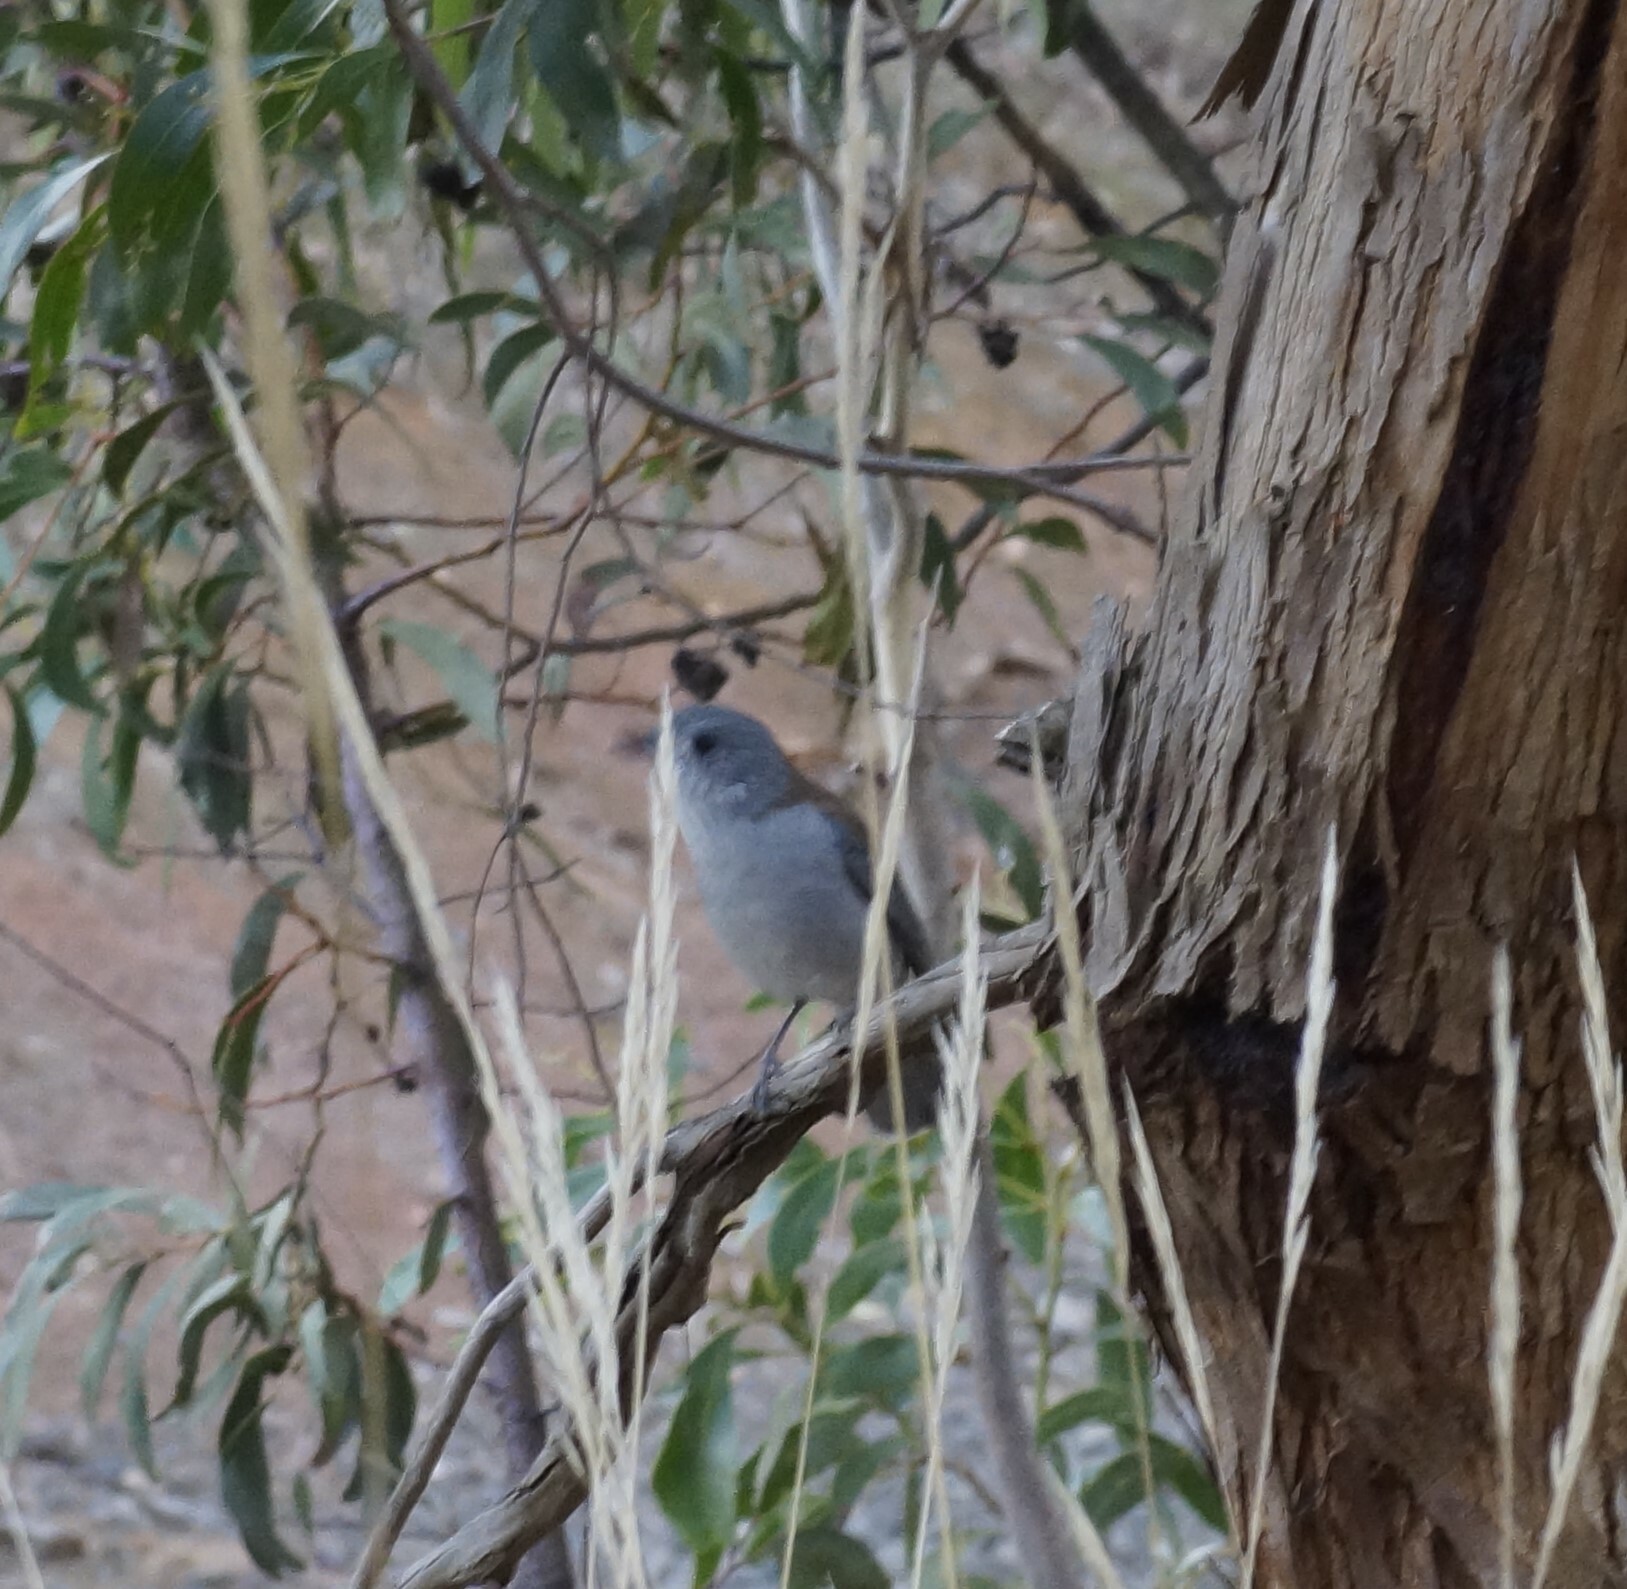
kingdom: Animalia
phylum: Chordata
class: Aves
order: Passeriformes
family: Pachycephalidae
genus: Colluricincla
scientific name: Colluricincla harmonica
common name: Grey shrikethrush
